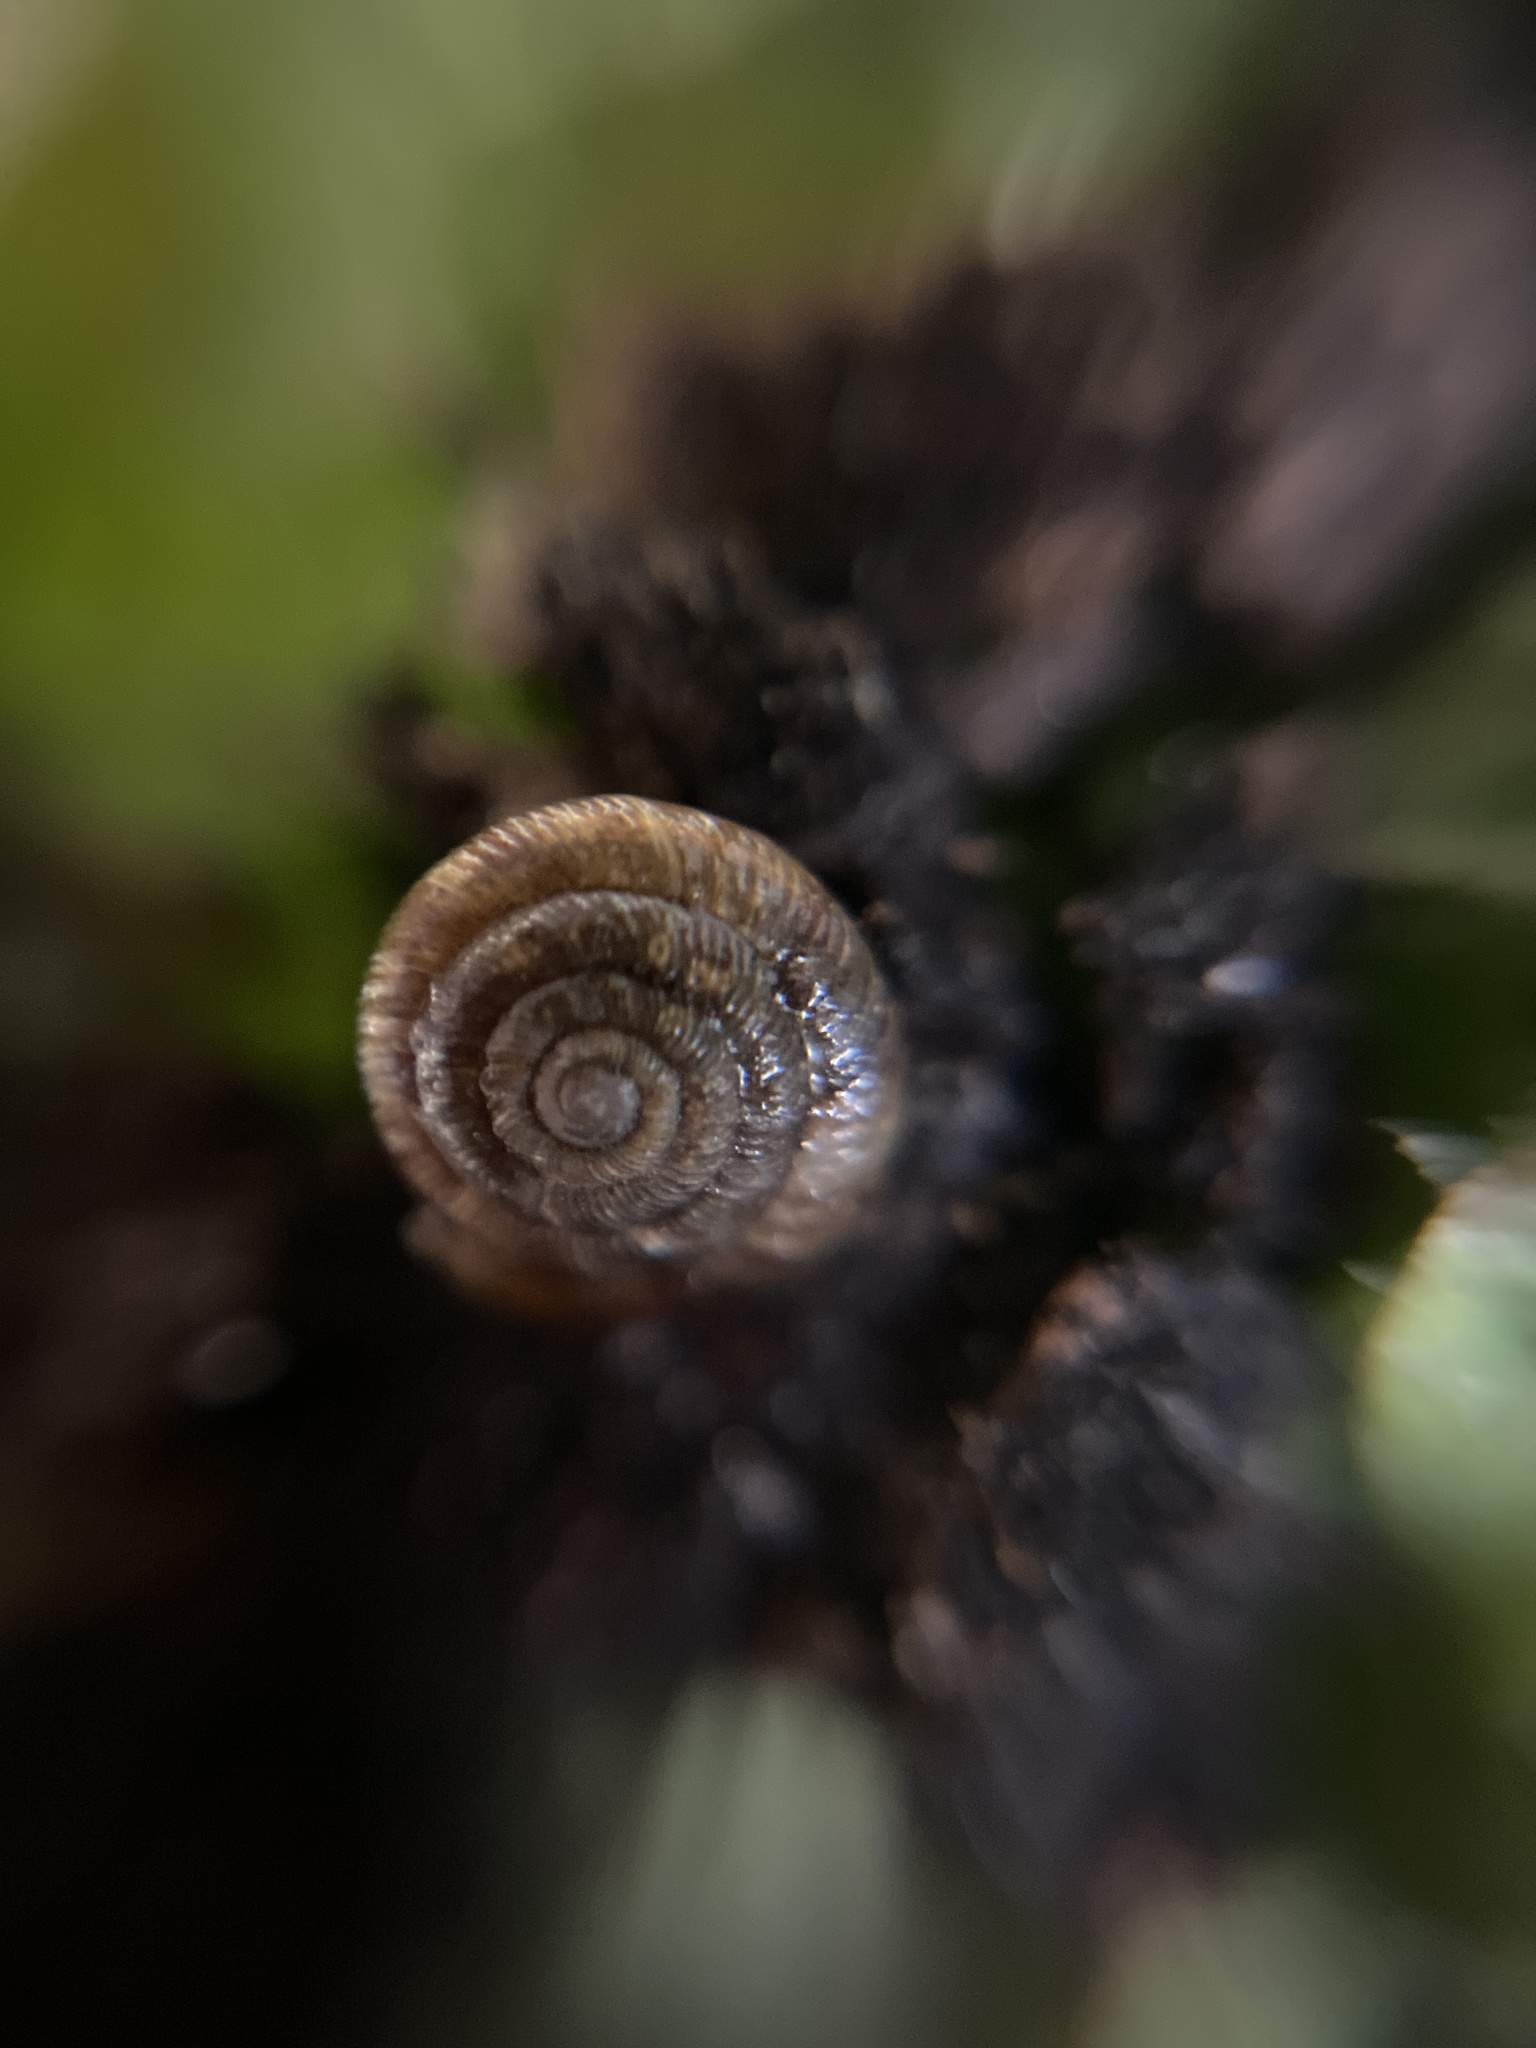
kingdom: Animalia
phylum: Mollusca
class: Gastropoda
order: Stylommatophora
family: Discidae
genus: Discus
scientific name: Discus rotundatus
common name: Rounded snail
